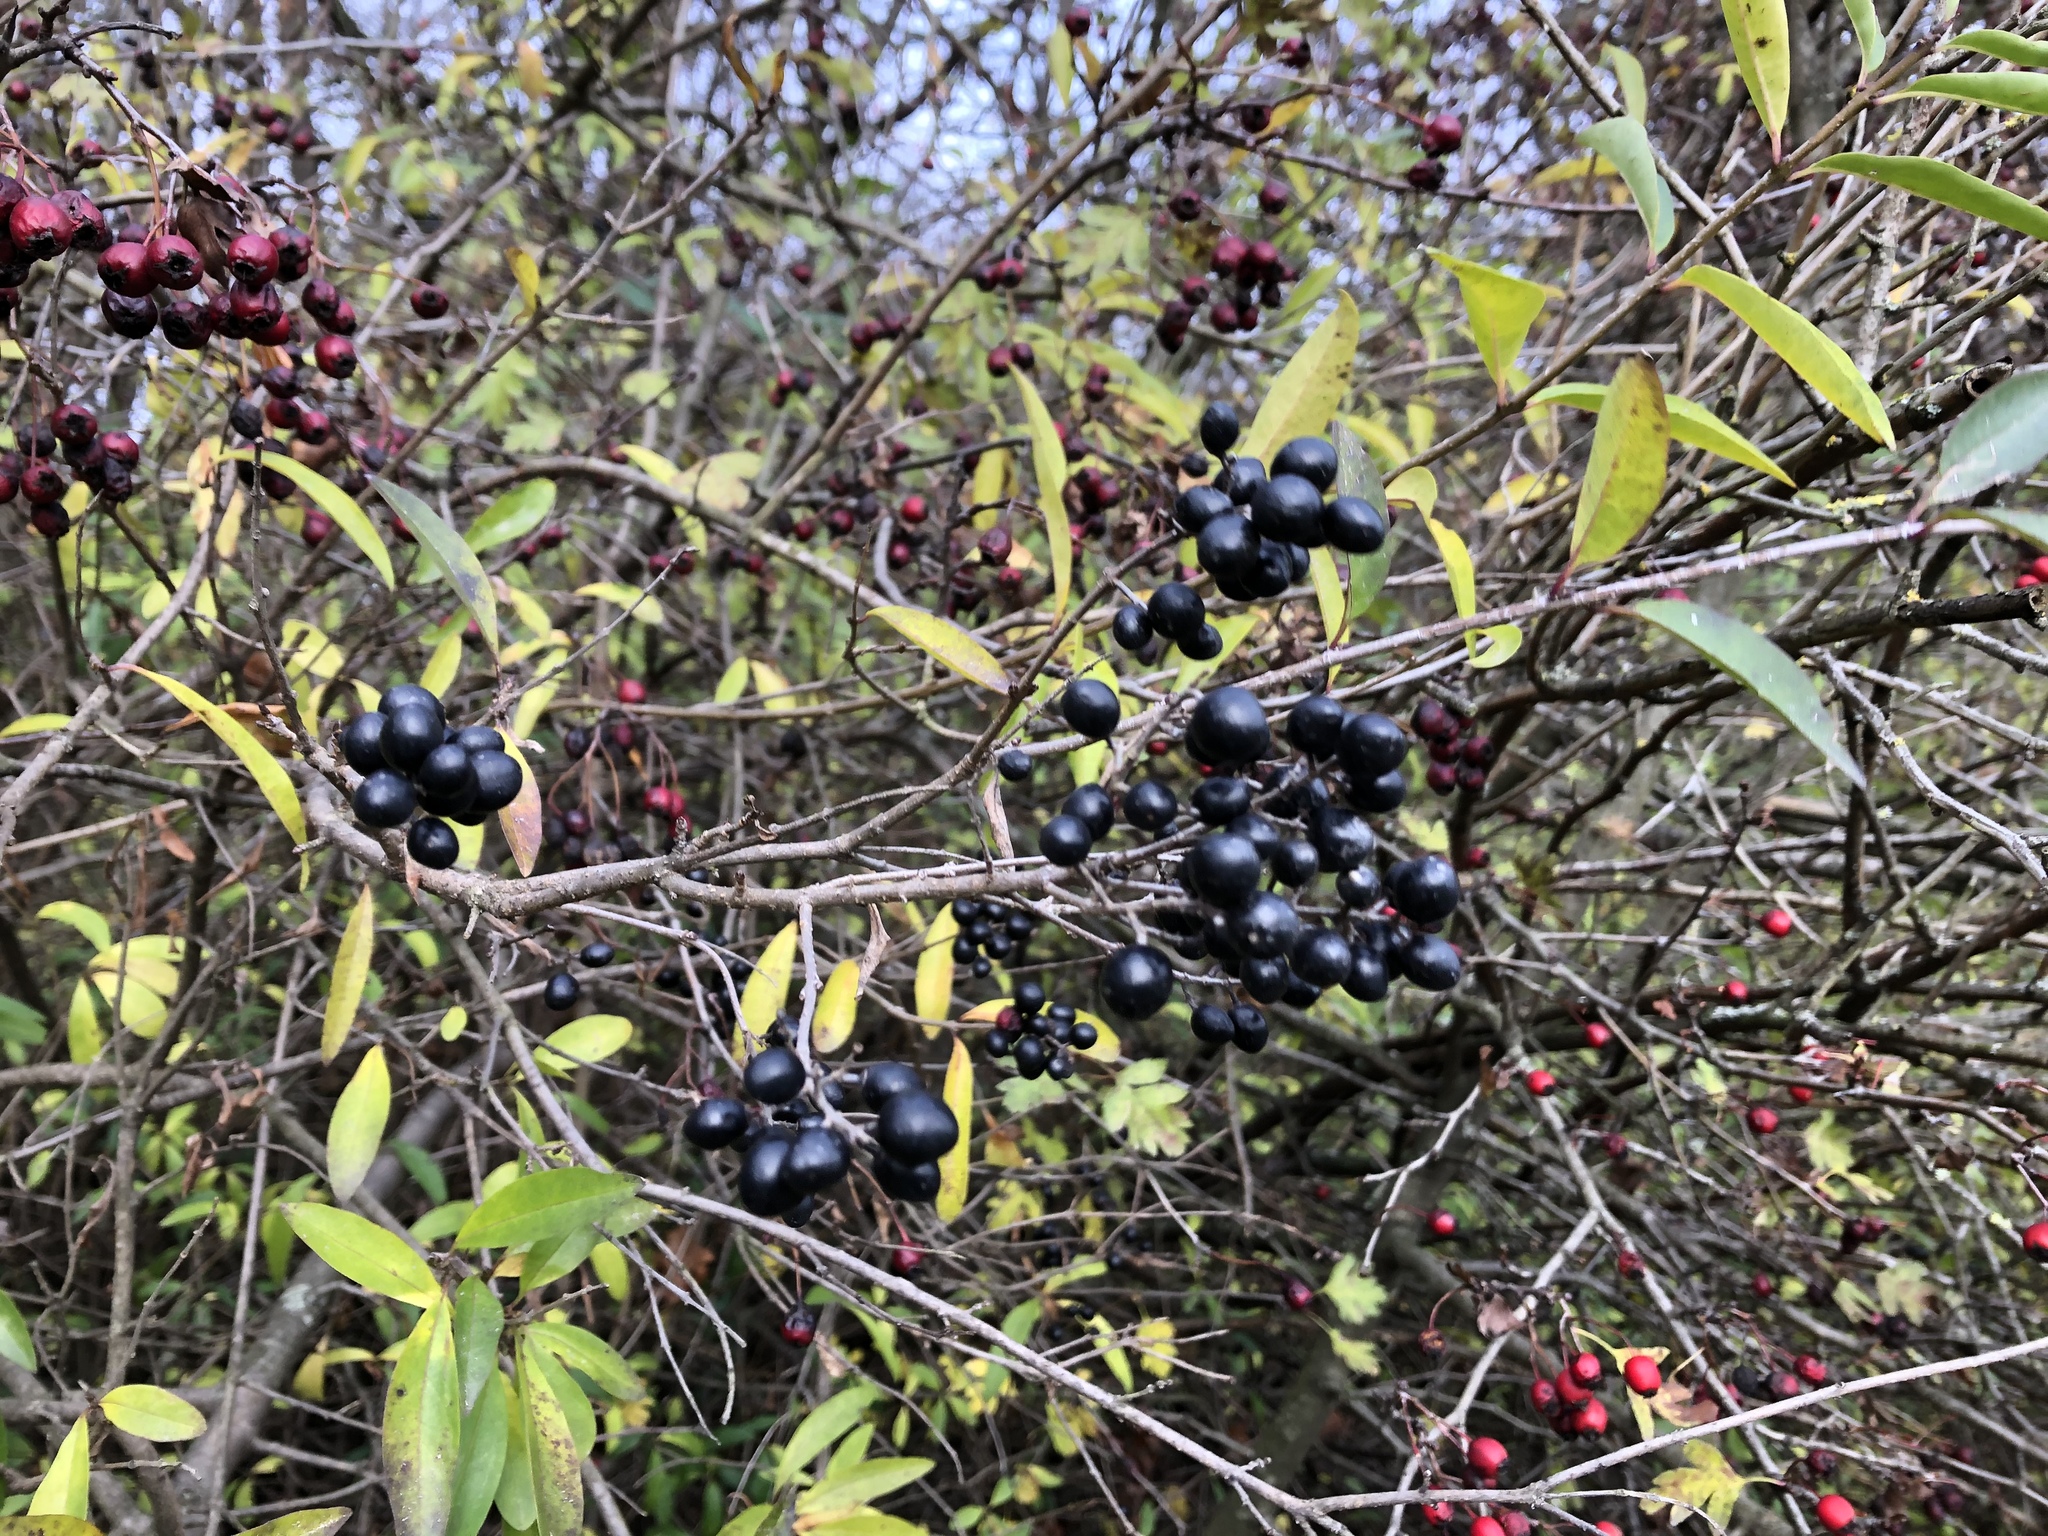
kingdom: Plantae
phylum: Tracheophyta
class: Magnoliopsida
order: Lamiales
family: Oleaceae
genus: Ligustrum
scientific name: Ligustrum vulgare
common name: Wild privet
